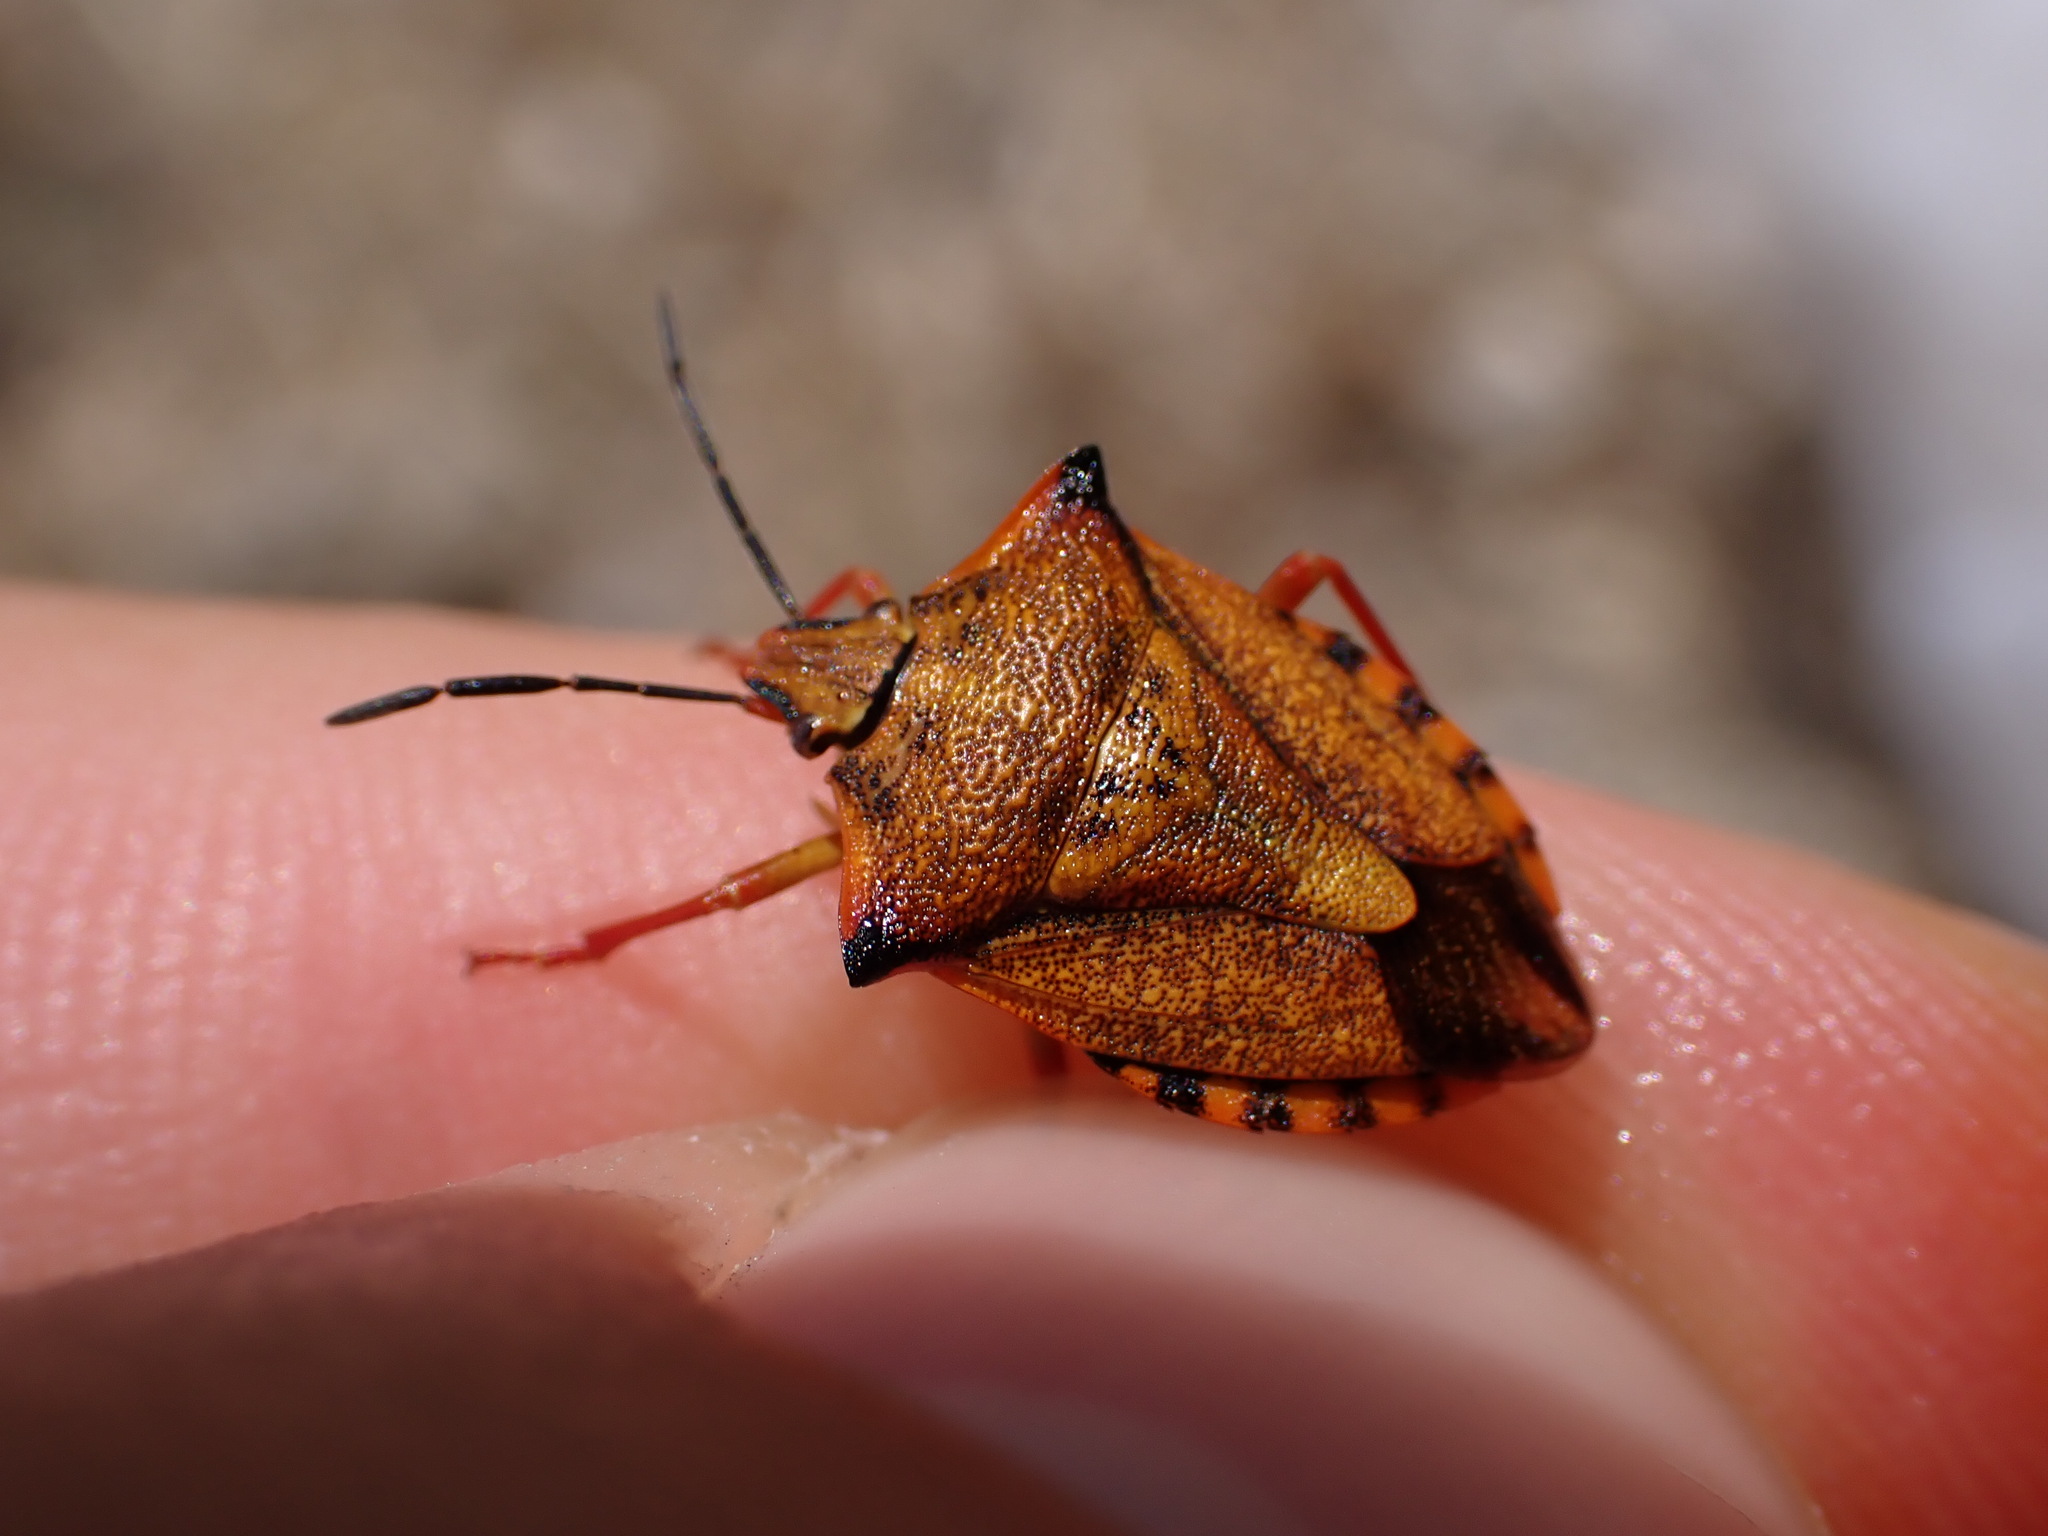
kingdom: Animalia
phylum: Arthropoda
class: Insecta
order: Hemiptera
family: Pentatomidae
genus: Carpocoris
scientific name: Carpocoris mediterraneus
